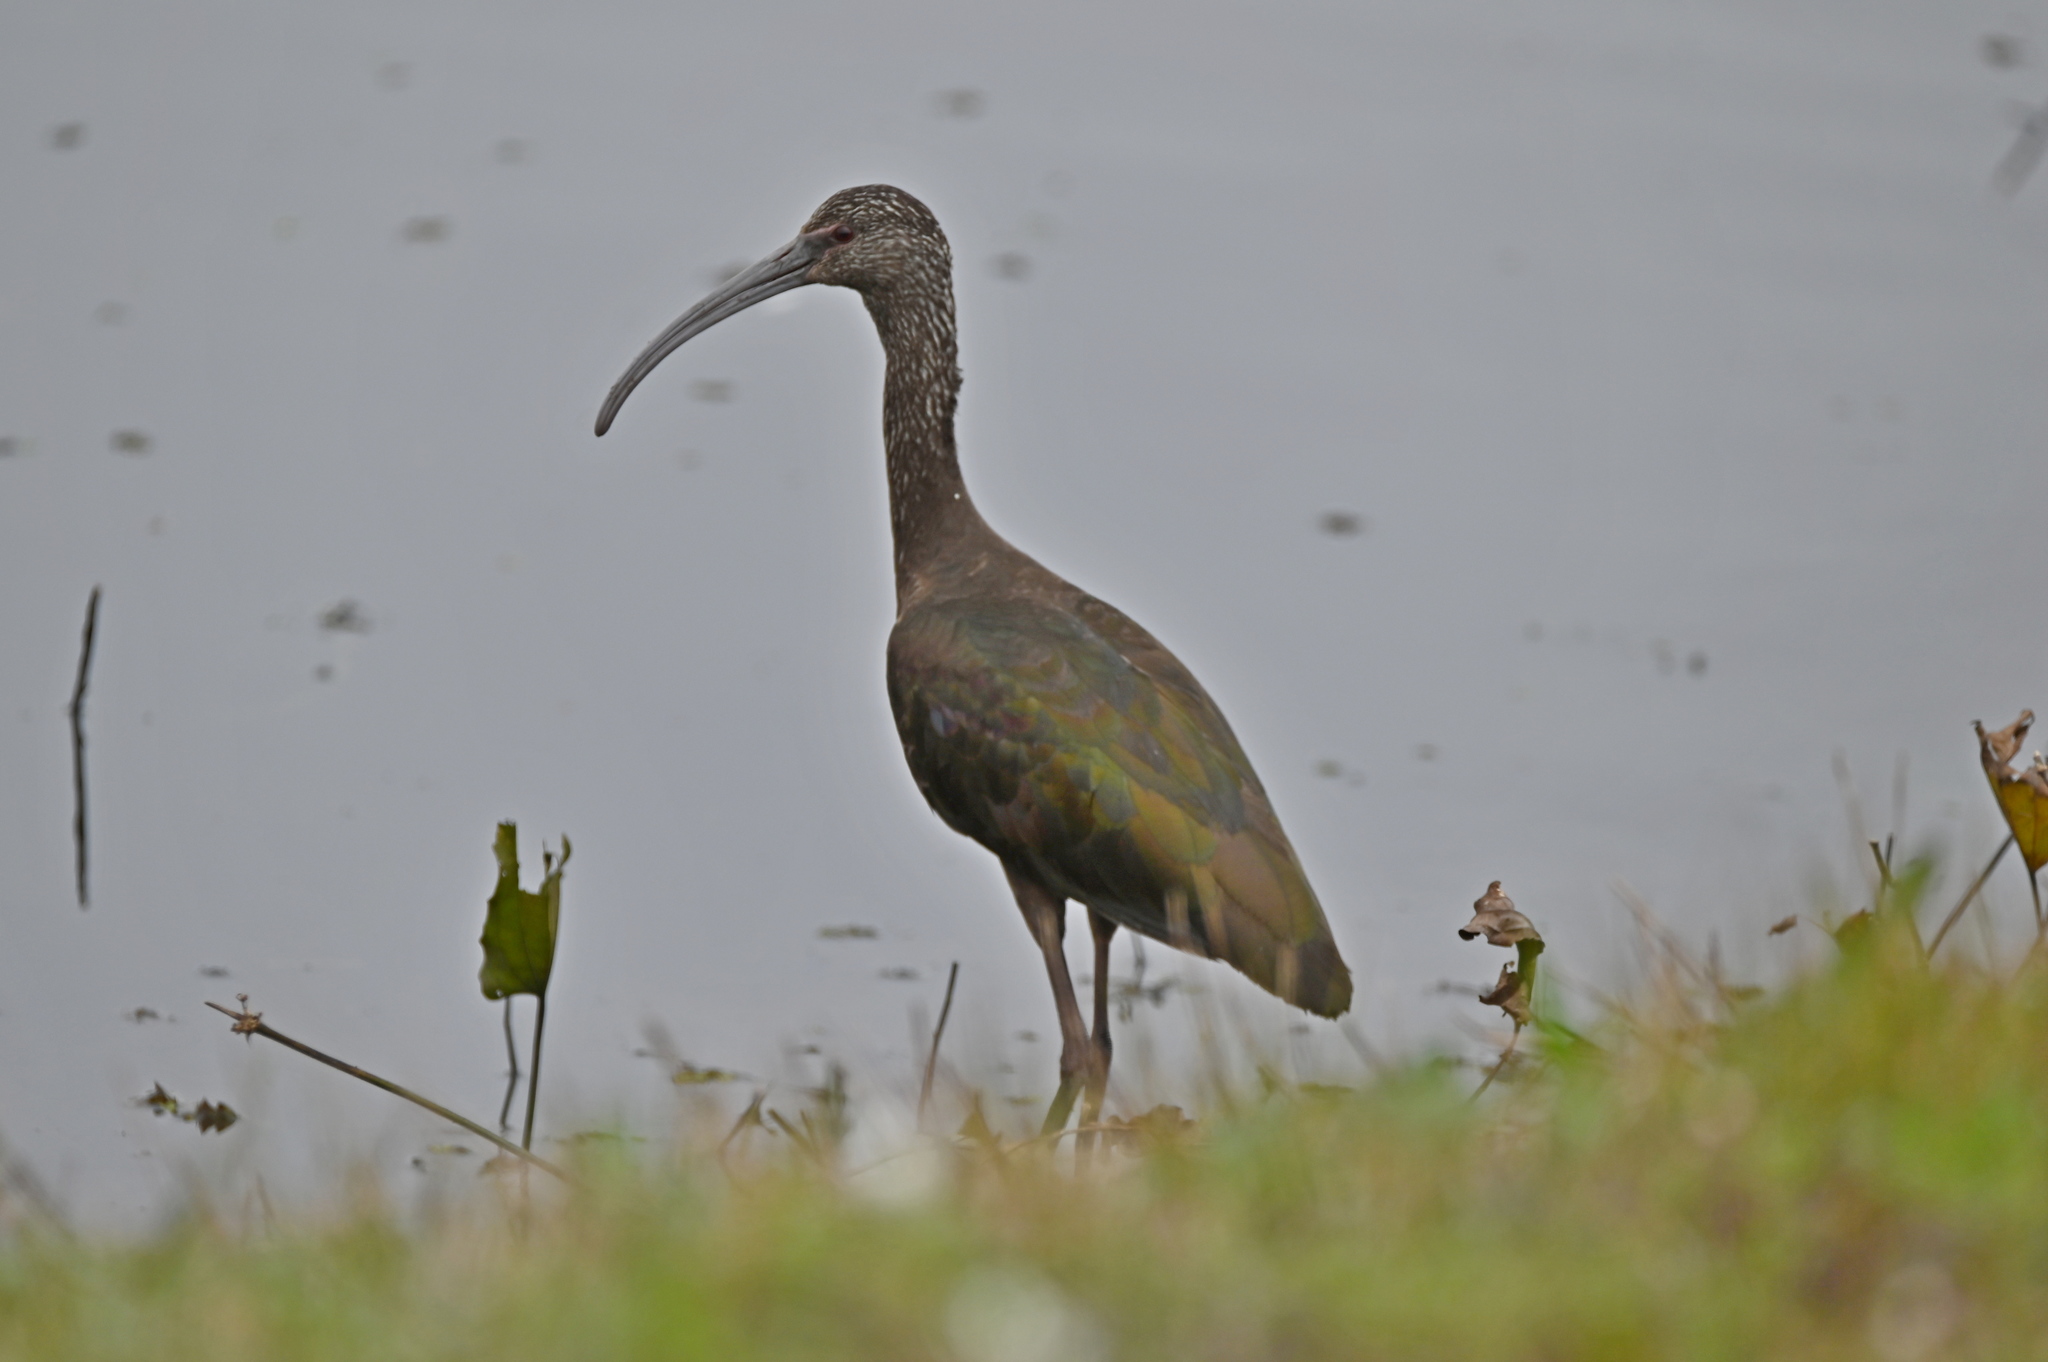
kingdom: Animalia
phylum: Chordata
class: Aves
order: Pelecaniformes
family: Threskiornithidae
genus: Plegadis
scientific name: Plegadis
